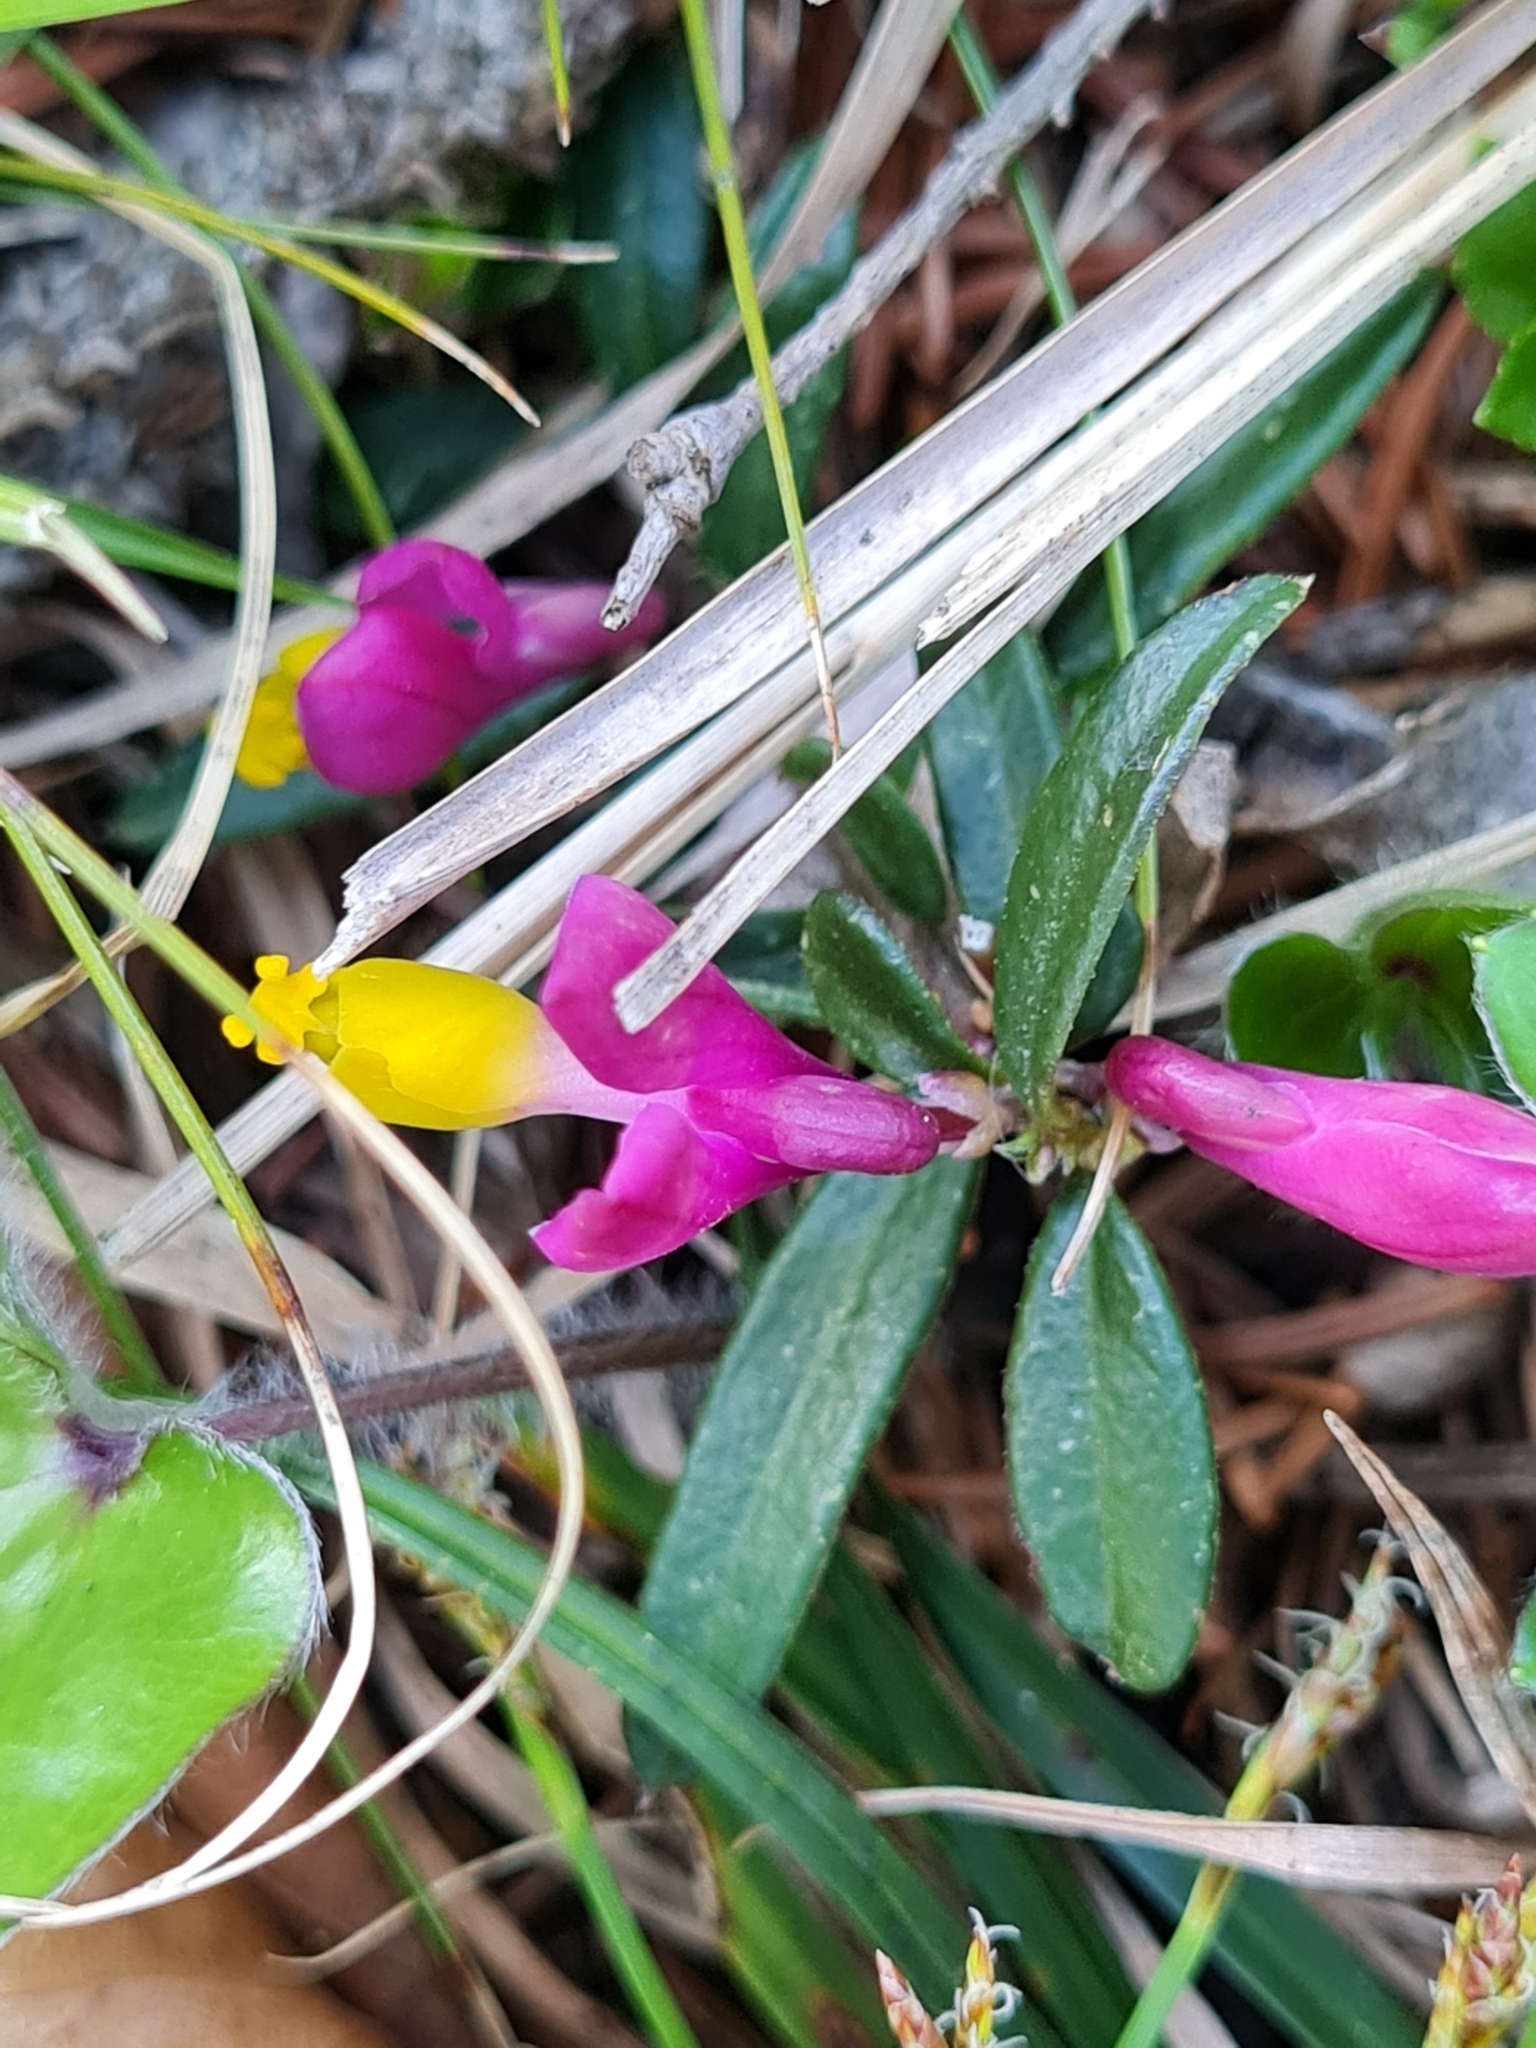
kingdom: Plantae
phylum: Tracheophyta
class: Magnoliopsida
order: Fabales
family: Polygalaceae
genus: Polygaloides
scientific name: Polygaloides chamaebuxus
